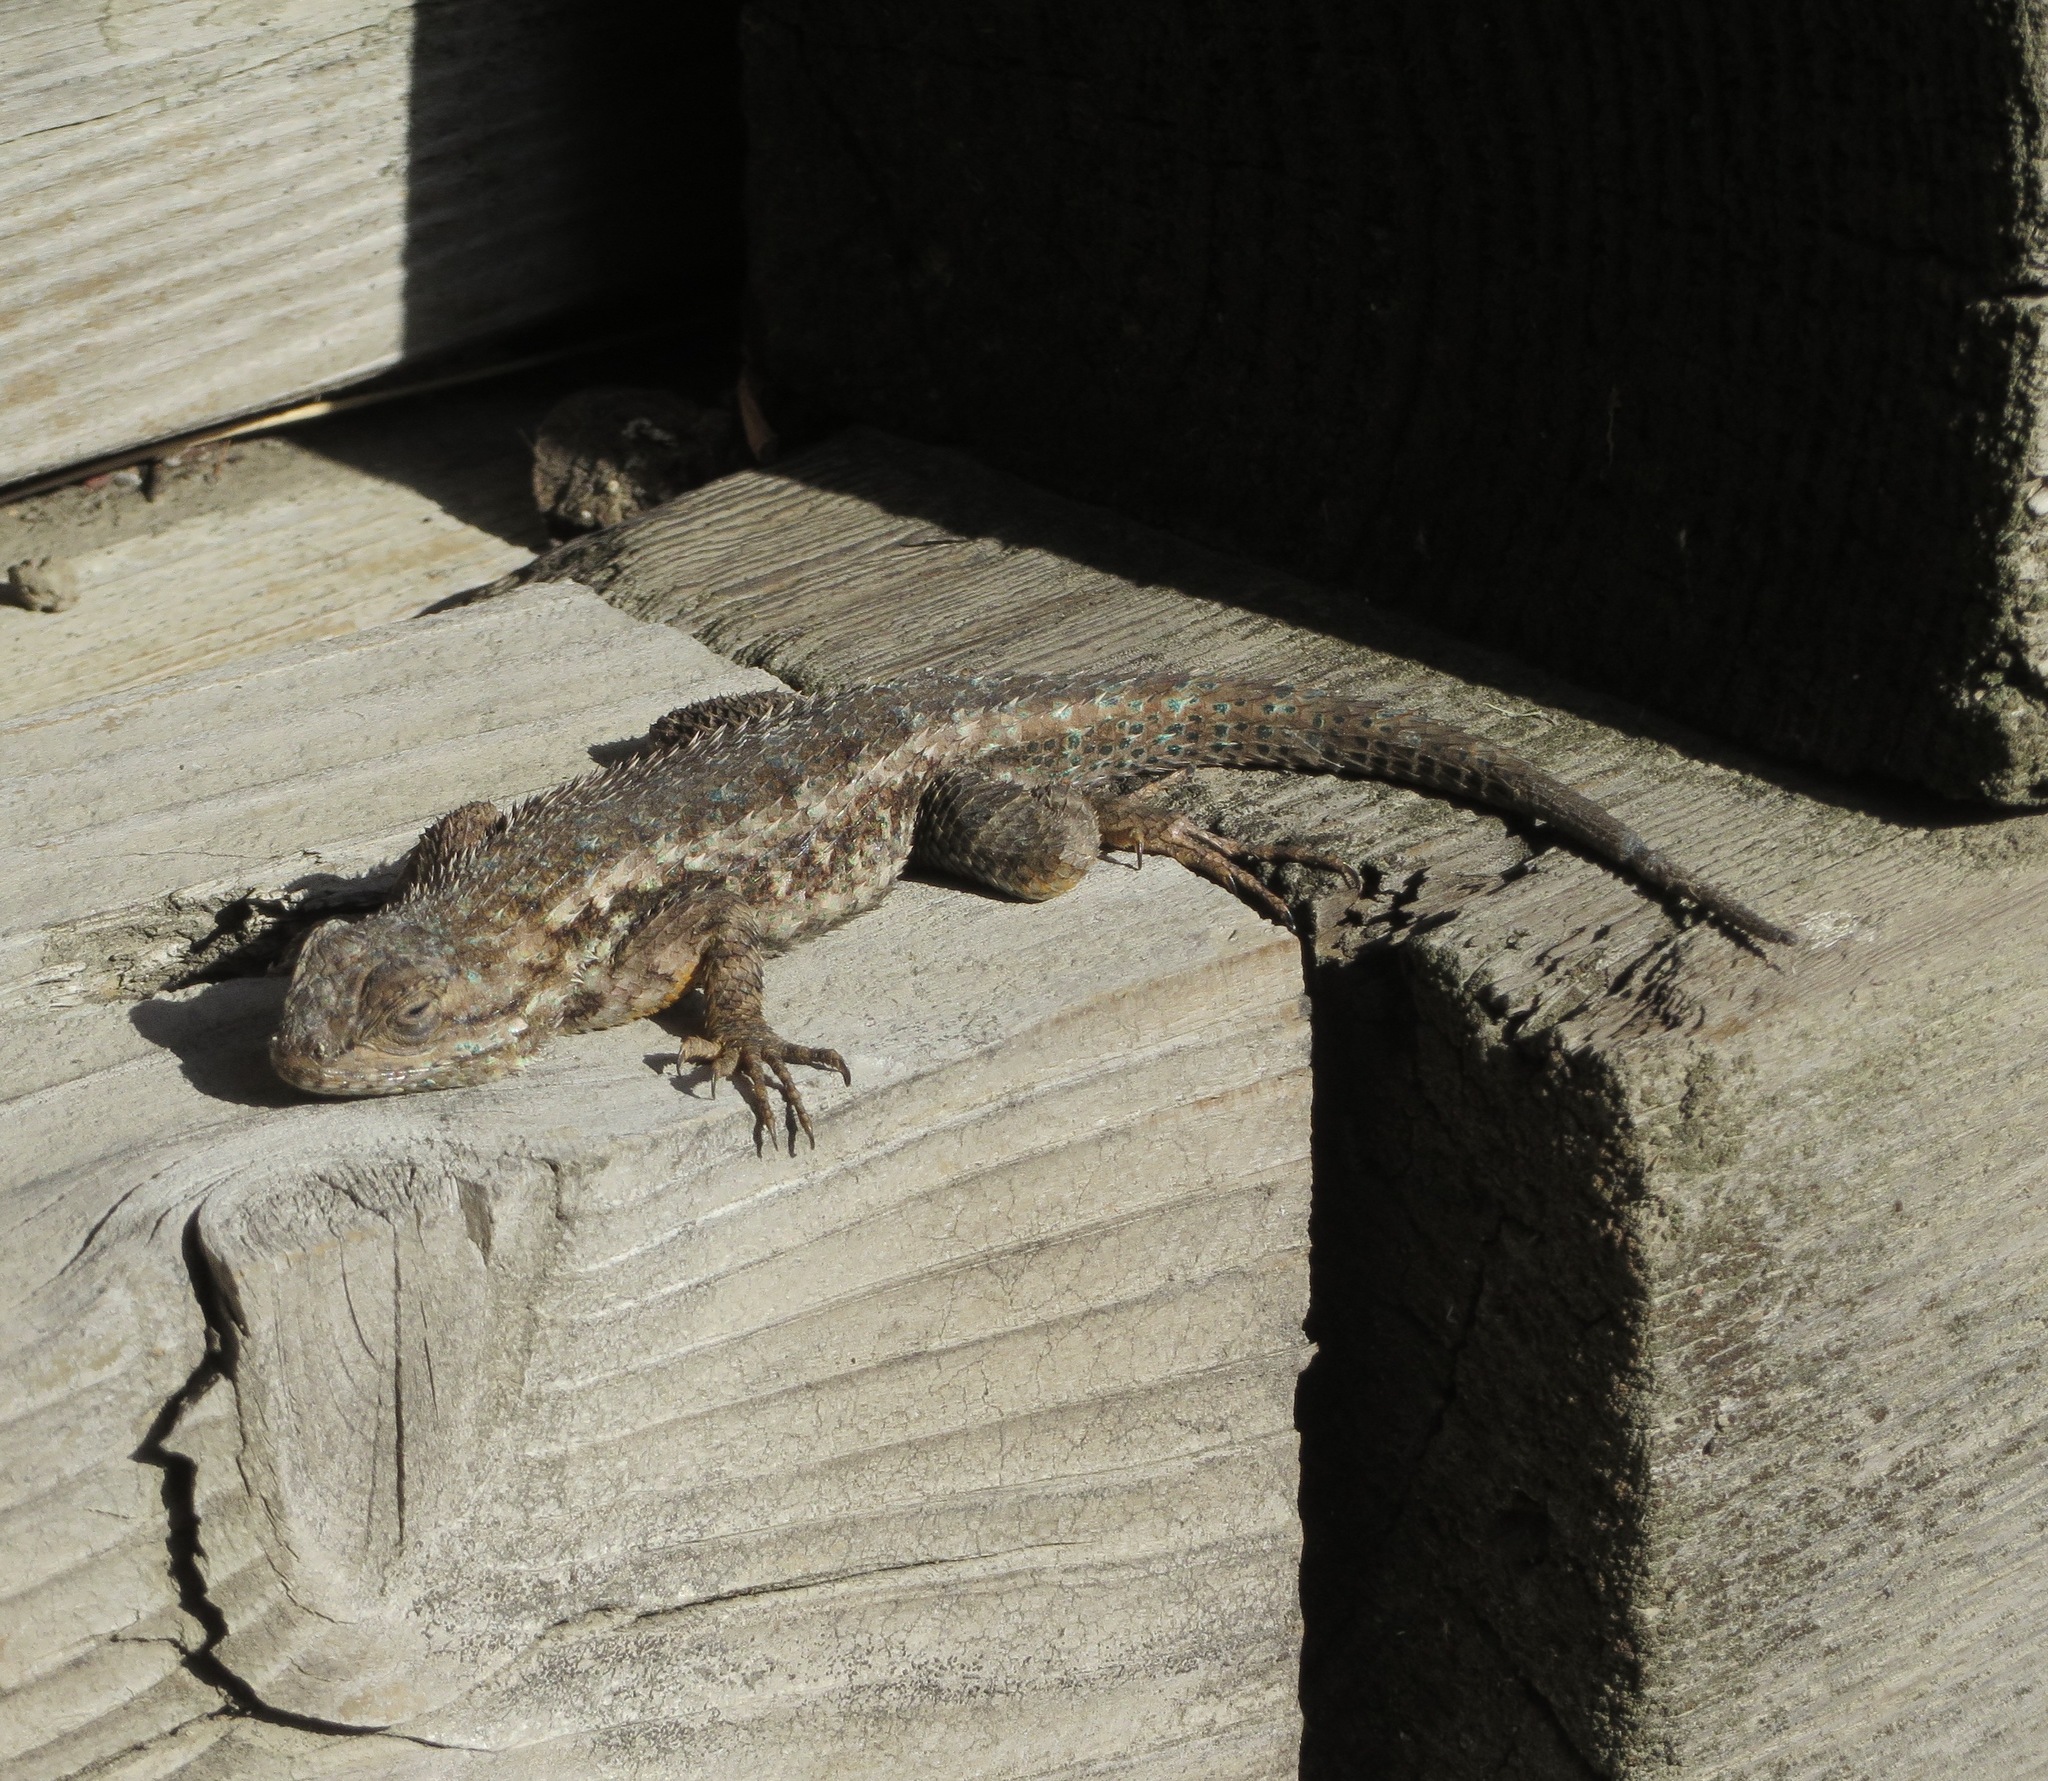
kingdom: Animalia
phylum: Chordata
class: Squamata
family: Phrynosomatidae
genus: Sceloporus
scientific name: Sceloporus occidentalis
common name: Western fence lizard
